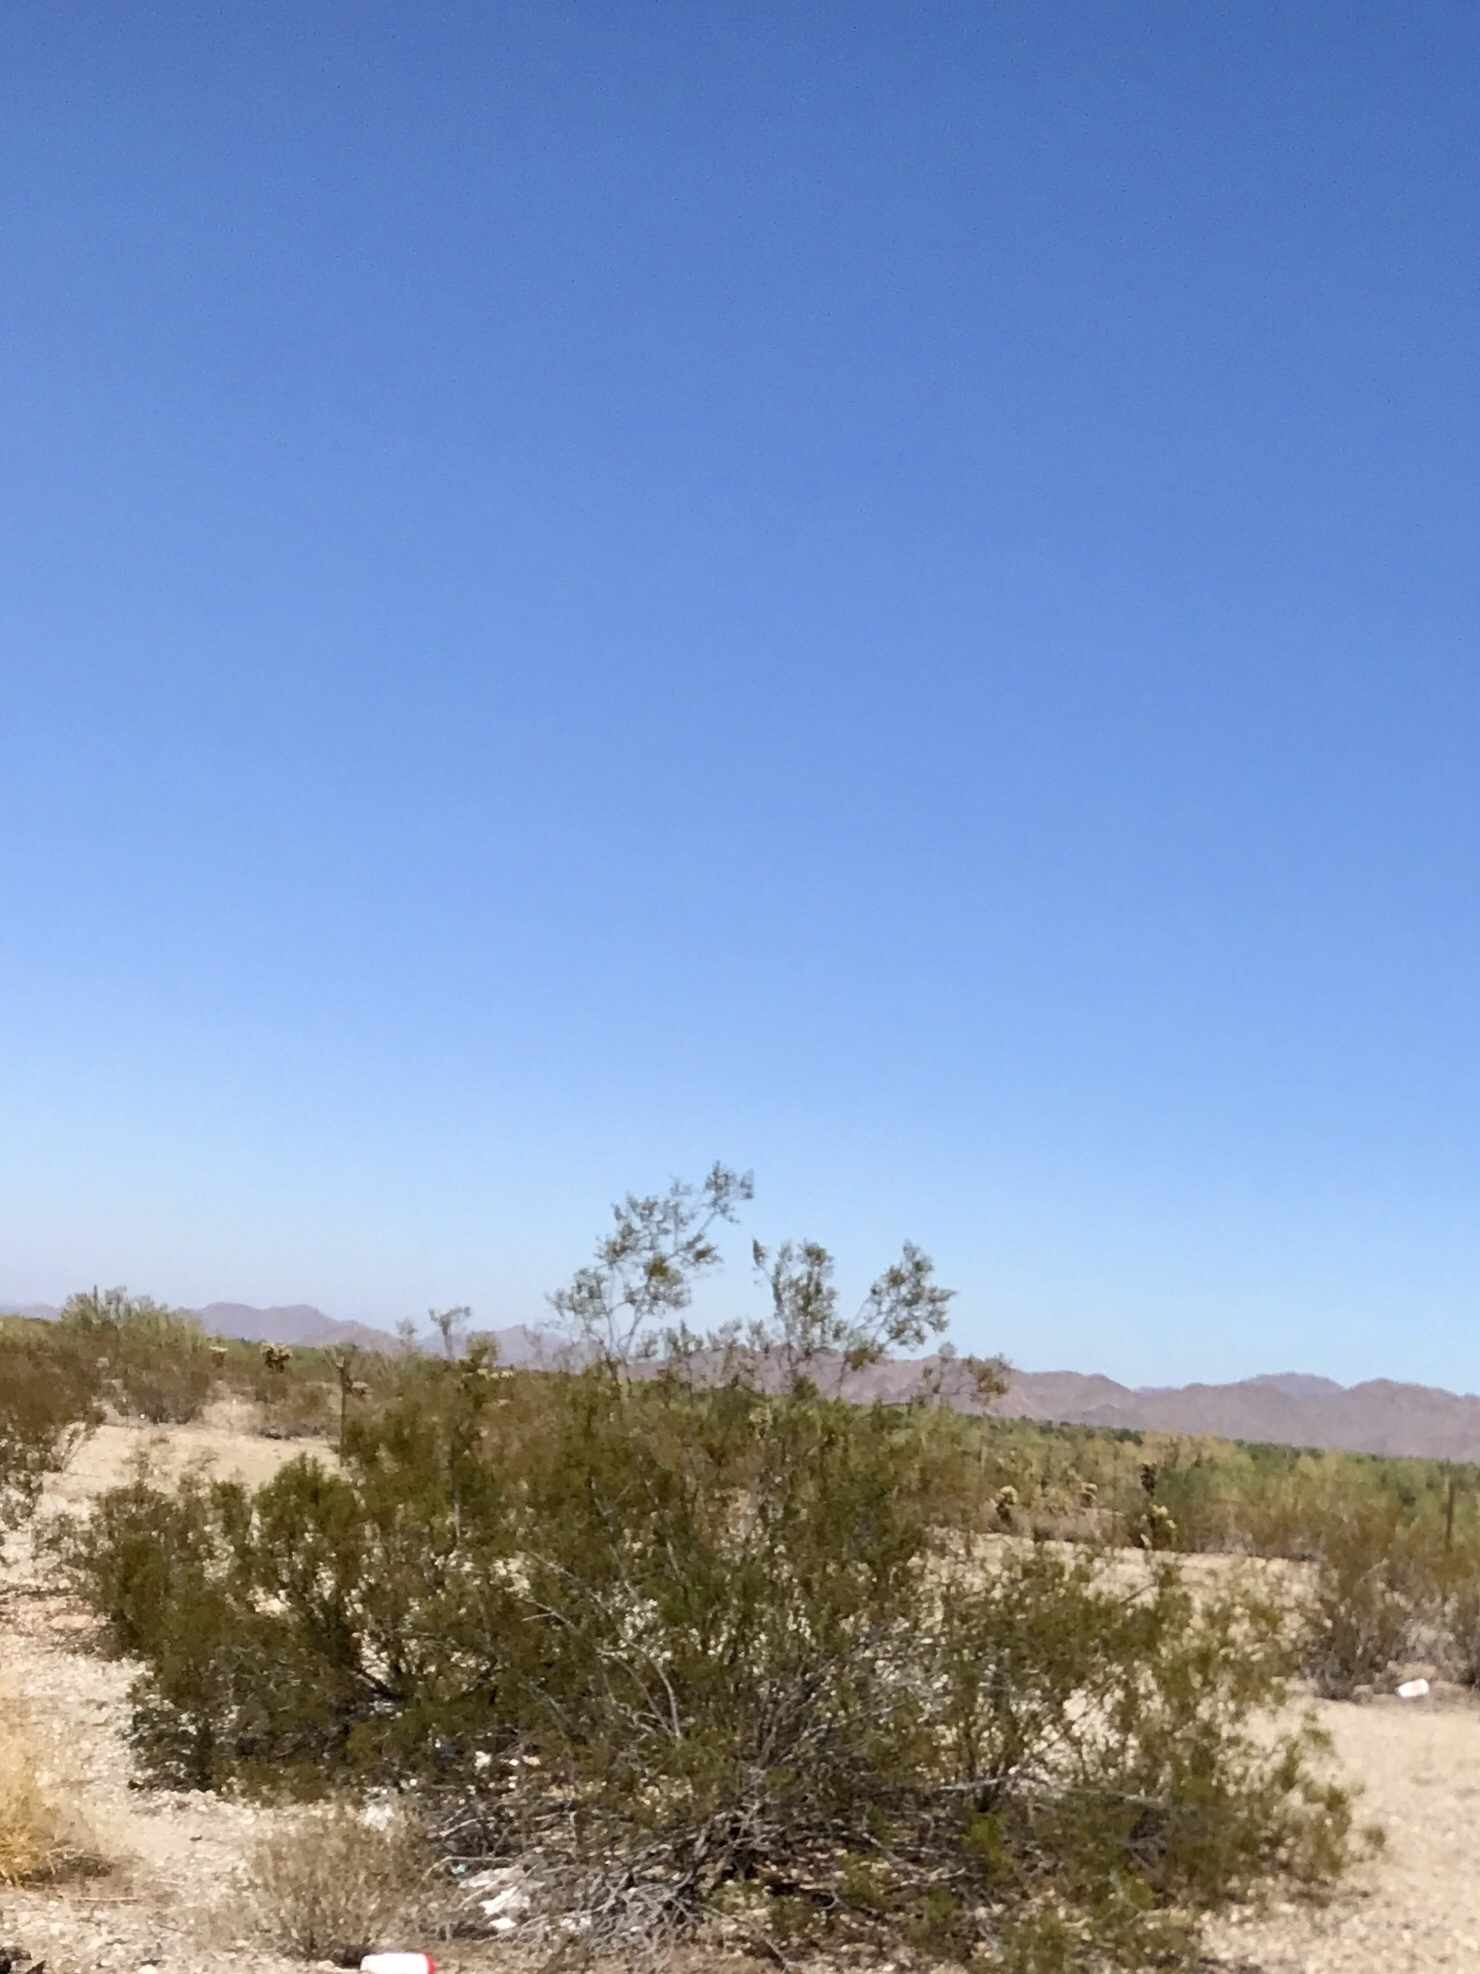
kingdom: Plantae
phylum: Tracheophyta
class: Magnoliopsida
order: Zygophyllales
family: Zygophyllaceae
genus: Larrea
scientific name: Larrea tridentata
